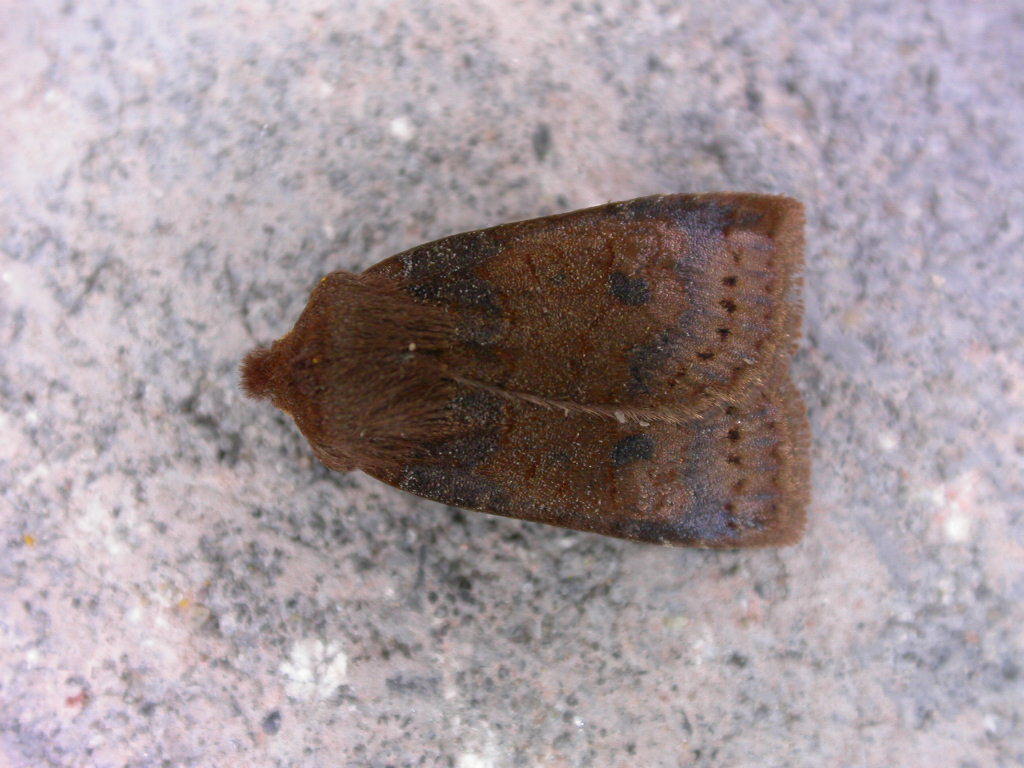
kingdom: Animalia
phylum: Arthropoda
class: Insecta
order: Lepidoptera
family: Noctuidae
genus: Conistra
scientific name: Conistra vaccinii
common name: Chestnut
